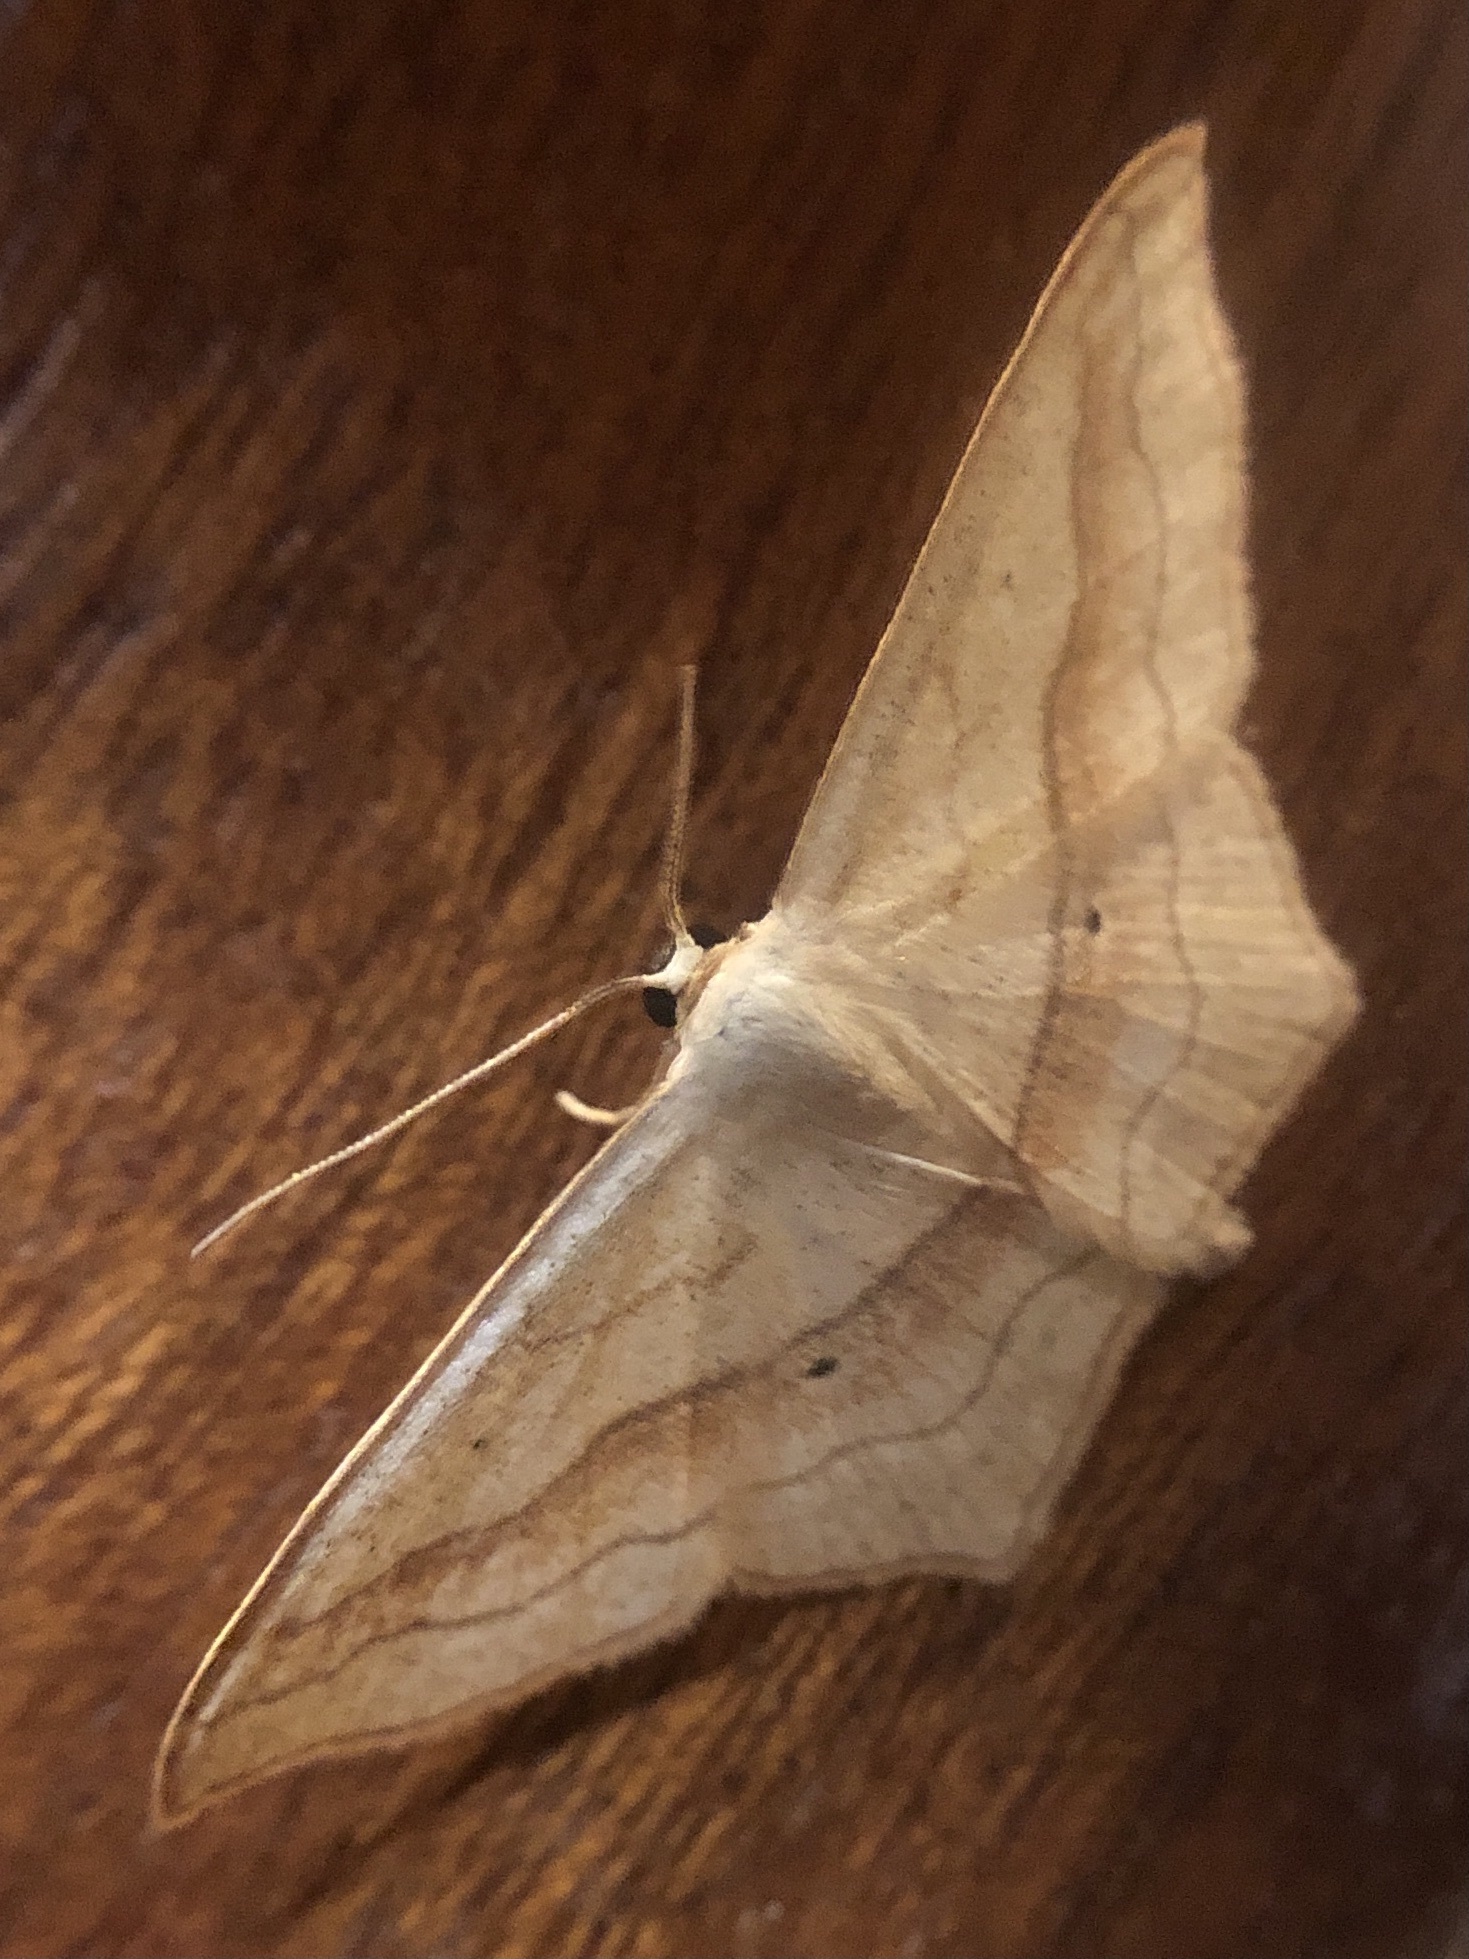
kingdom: Animalia
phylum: Arthropoda
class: Insecta
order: Lepidoptera
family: Geometridae
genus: Scopula
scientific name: Scopula imitaria
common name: Small blood-vein
